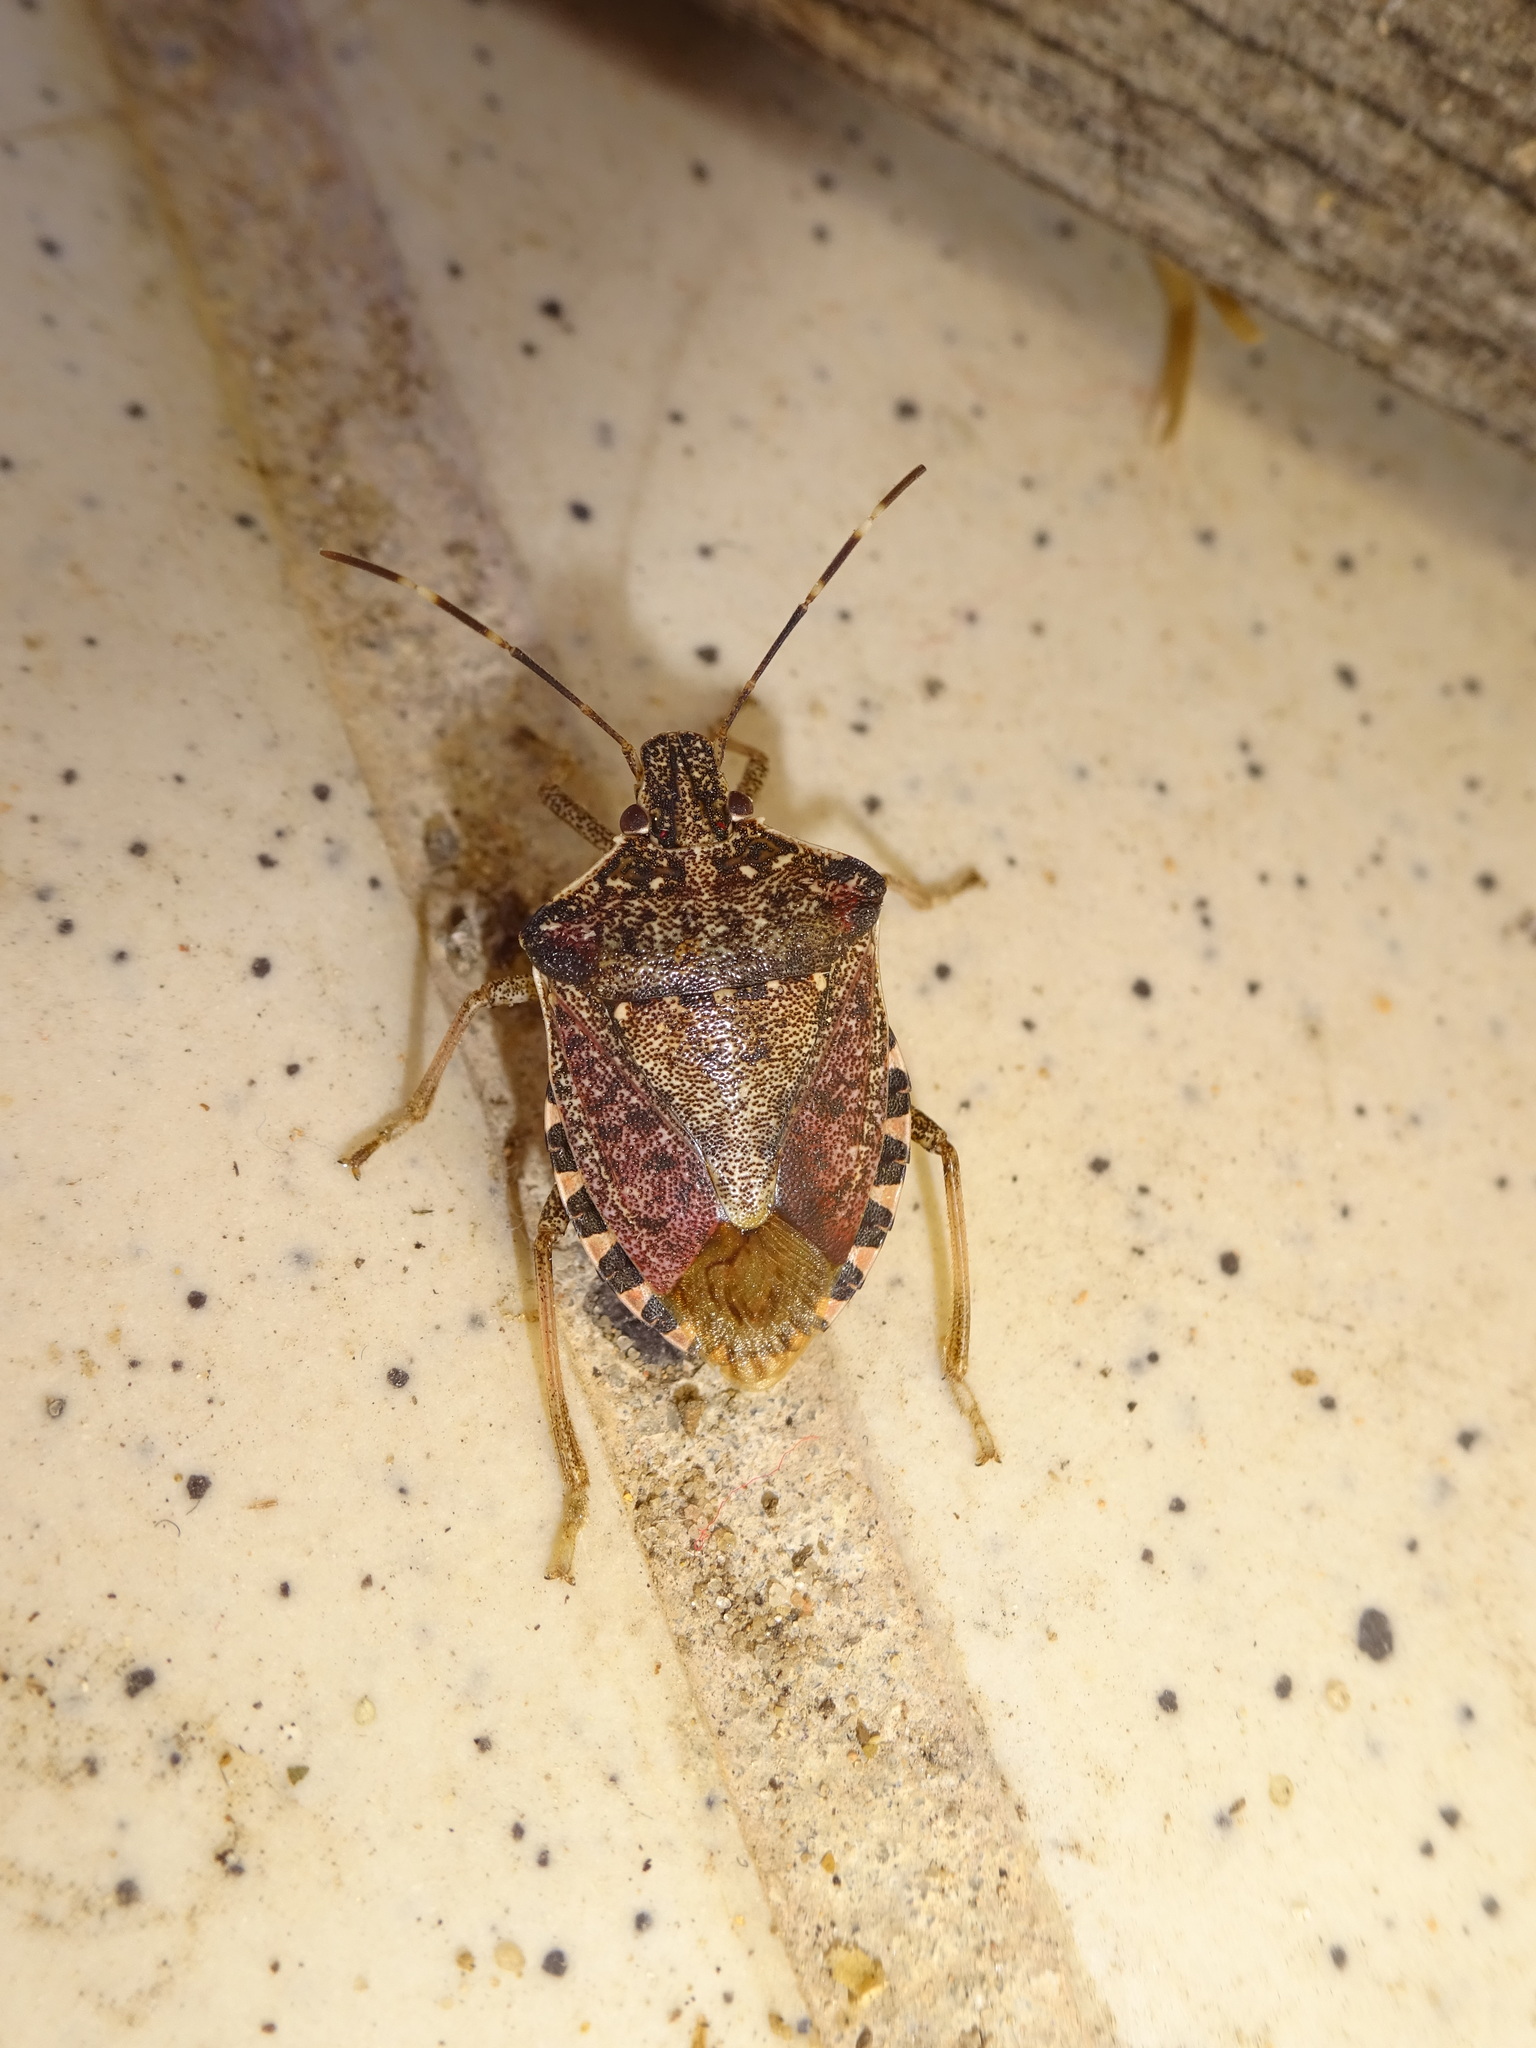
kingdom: Animalia
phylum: Arthropoda
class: Insecta
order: Hemiptera
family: Pentatomidae
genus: Halyomorpha
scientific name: Halyomorpha halys
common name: Brown marmorated stink bug
